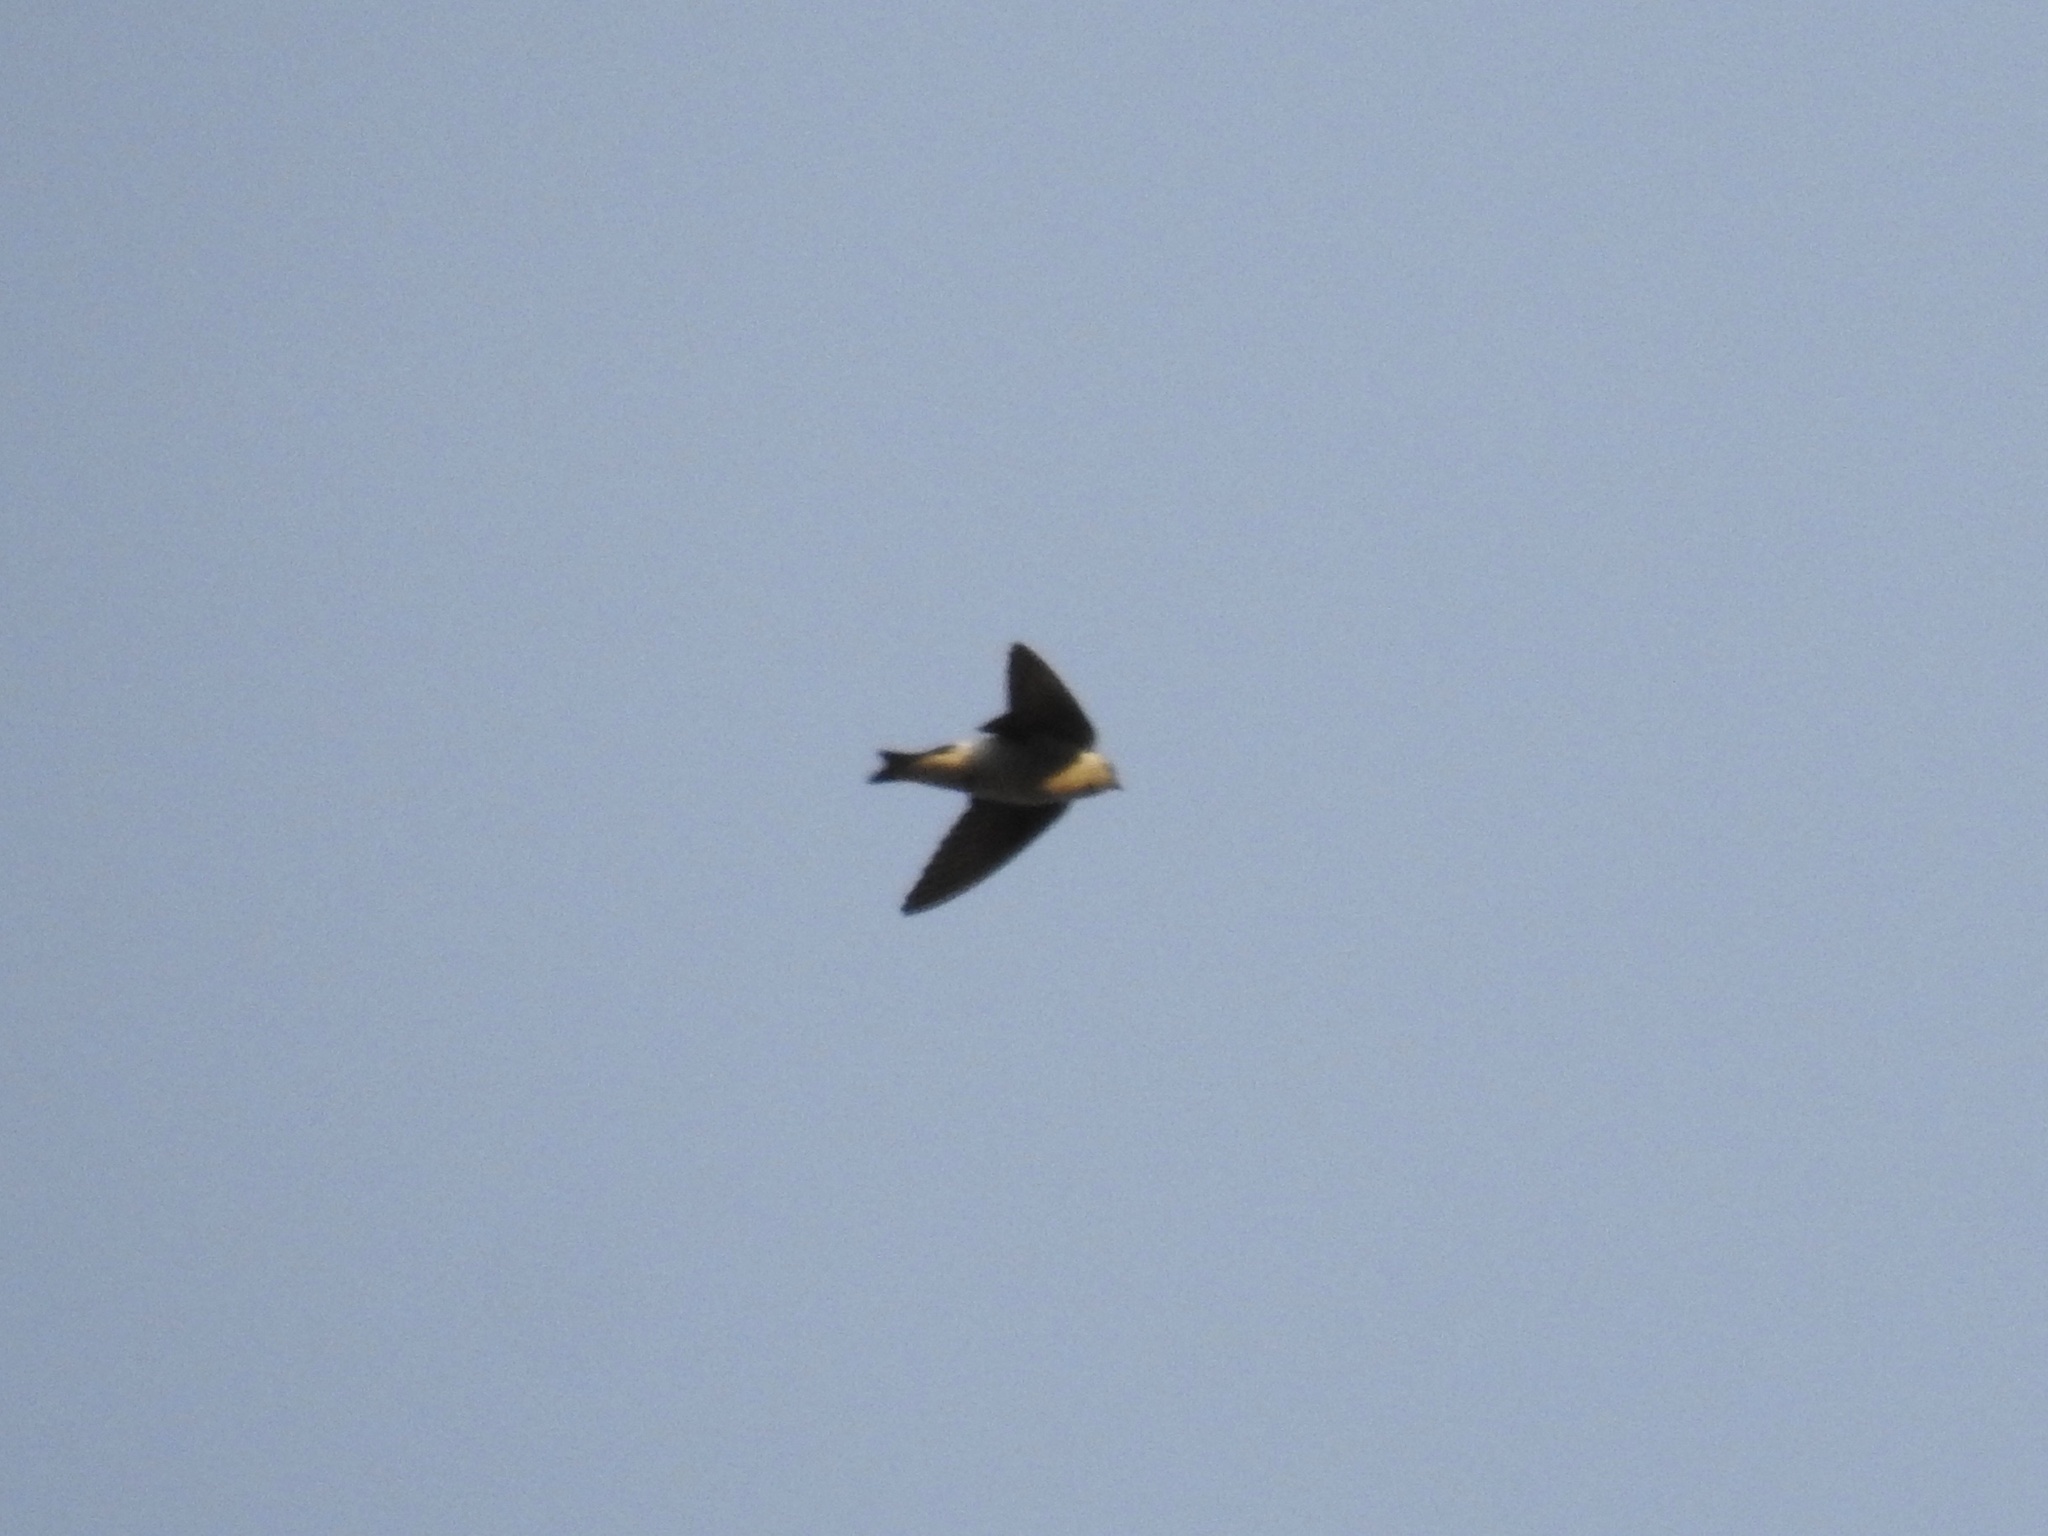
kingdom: Animalia
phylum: Chordata
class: Aves
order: Passeriformes
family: Hirundinidae
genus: Tachycineta
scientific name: Tachycineta thalassina
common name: Violet-green swallow
